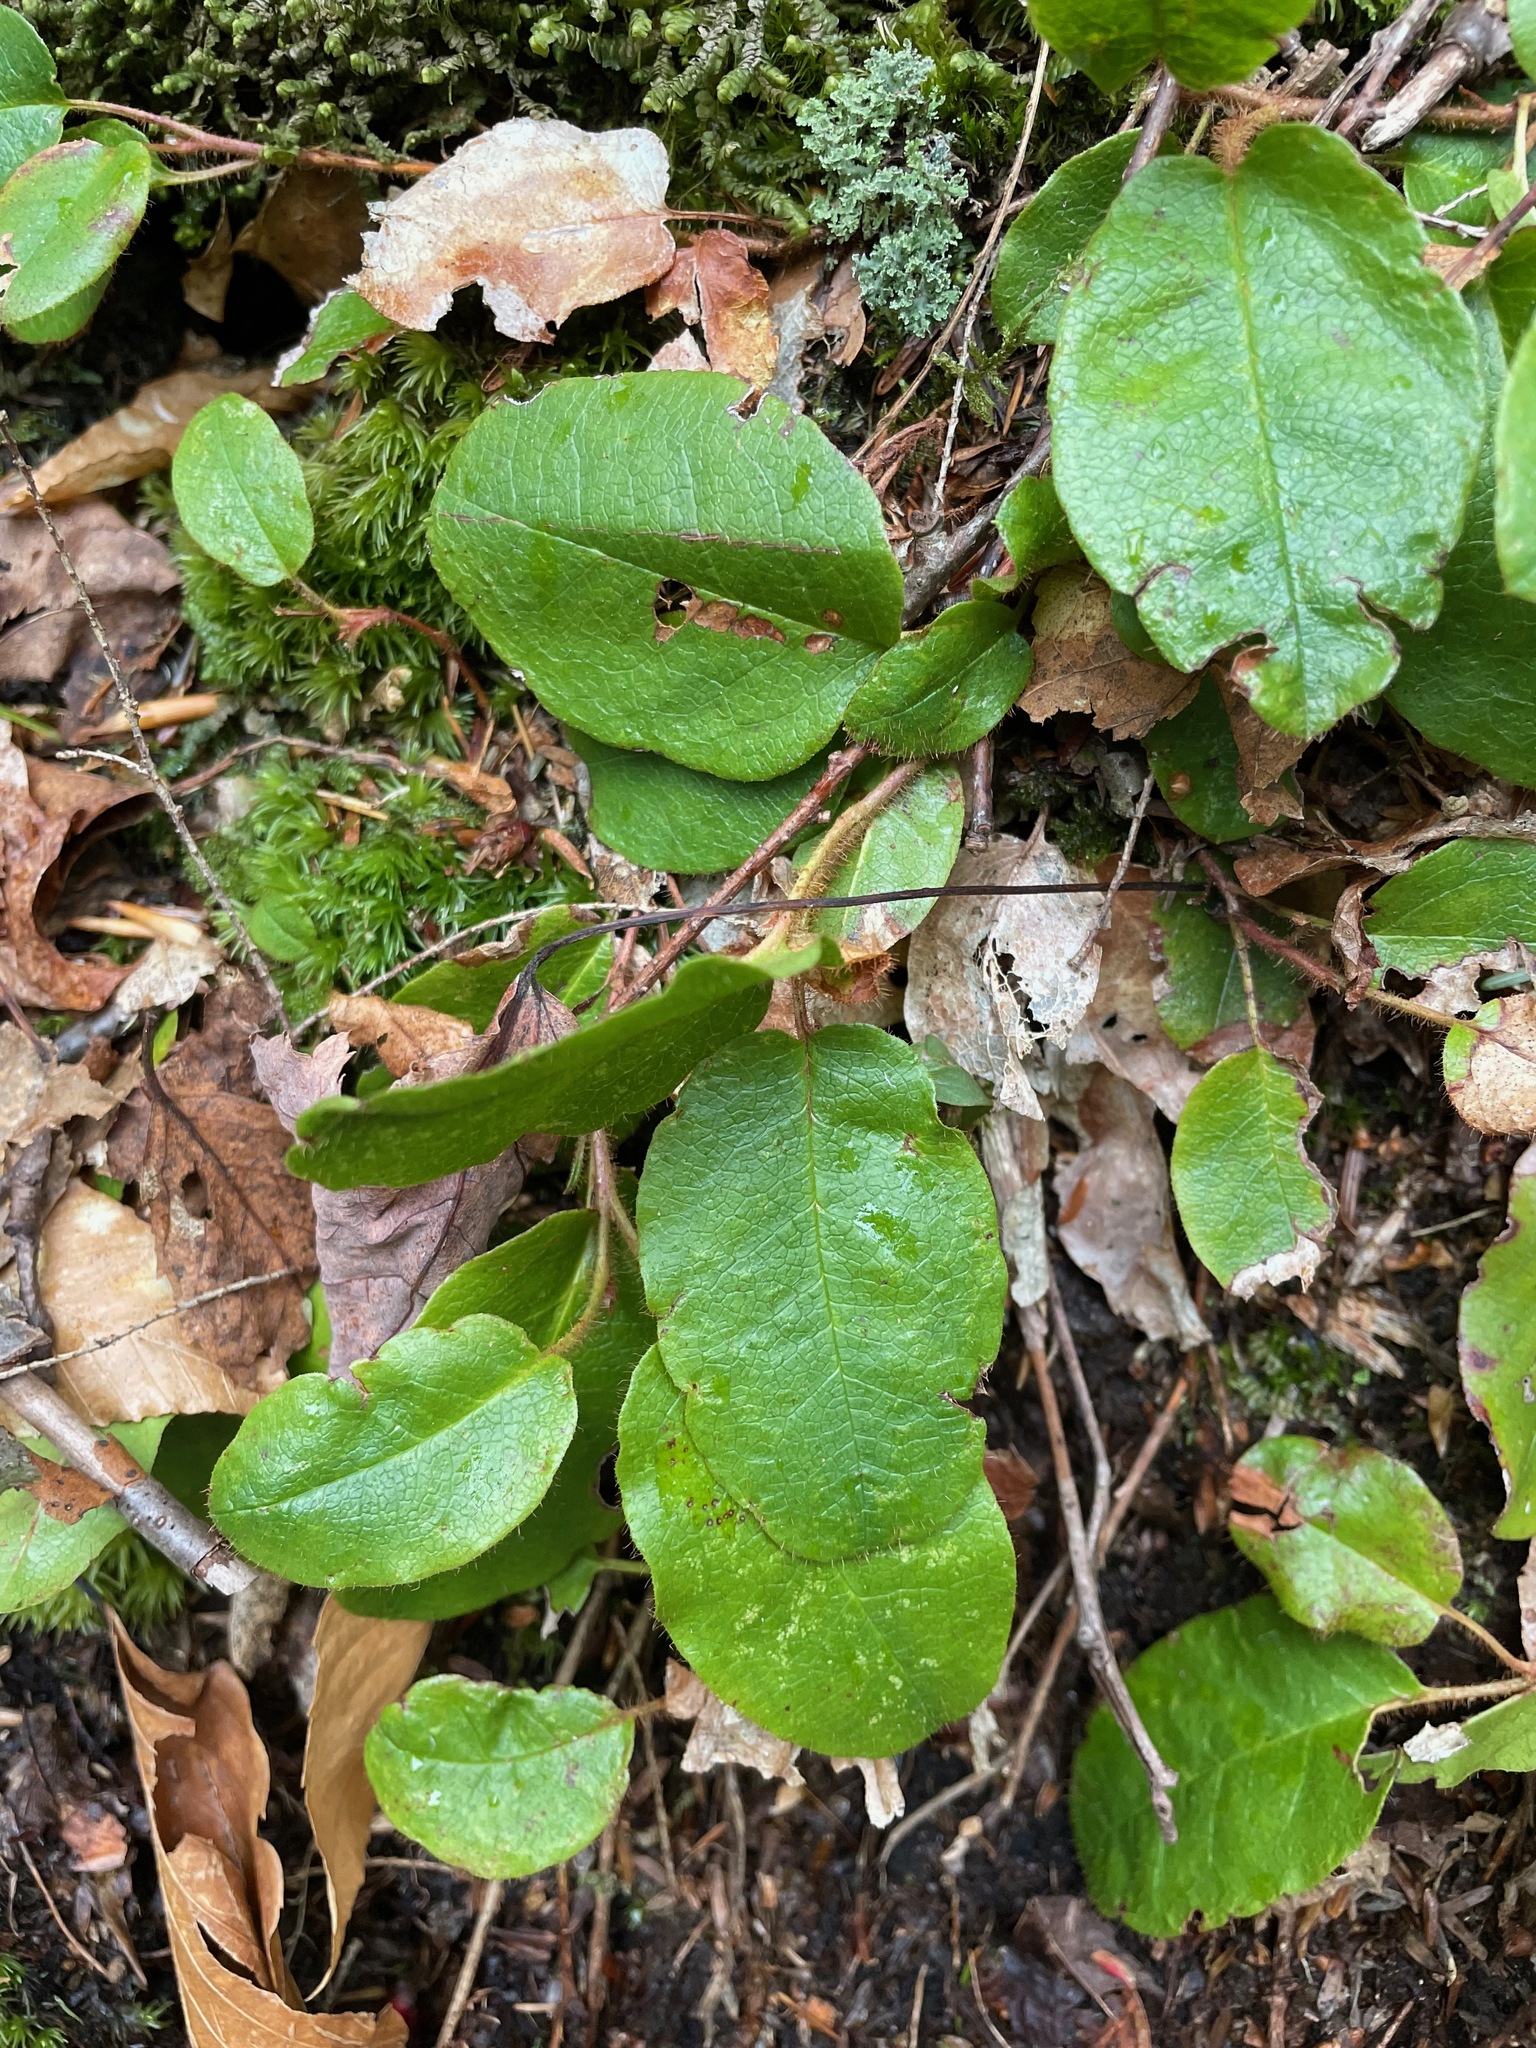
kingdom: Plantae
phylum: Tracheophyta
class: Magnoliopsida
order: Ericales
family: Ericaceae
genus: Epigaea
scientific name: Epigaea repens
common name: Gravelroot
